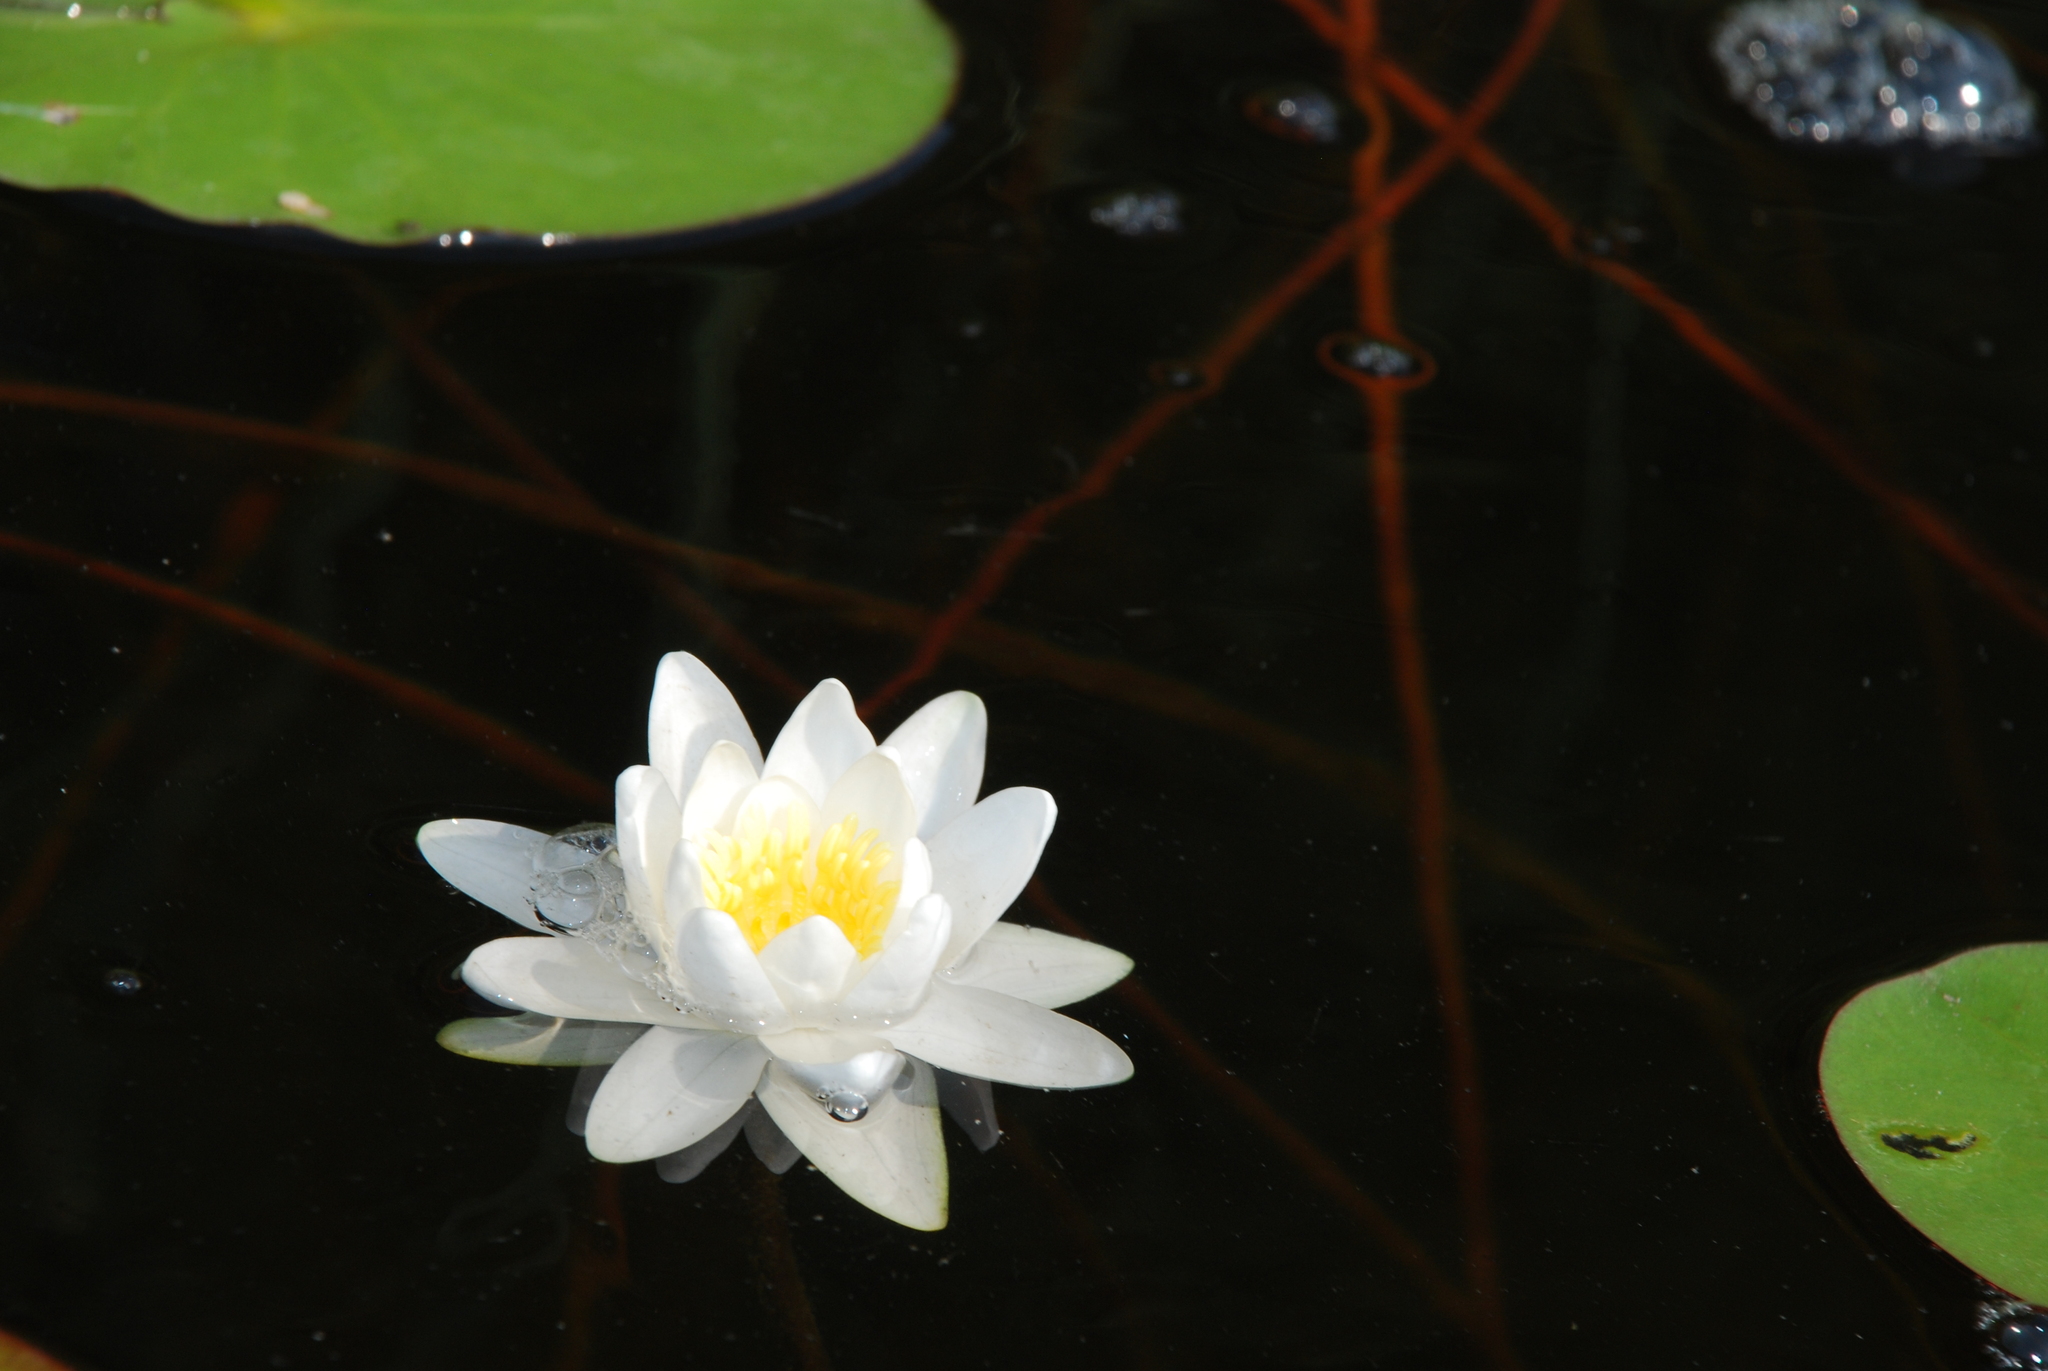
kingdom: Plantae
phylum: Tracheophyta
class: Magnoliopsida
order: Nymphaeales
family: Nymphaeaceae
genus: Nymphaea
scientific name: Nymphaea candida
